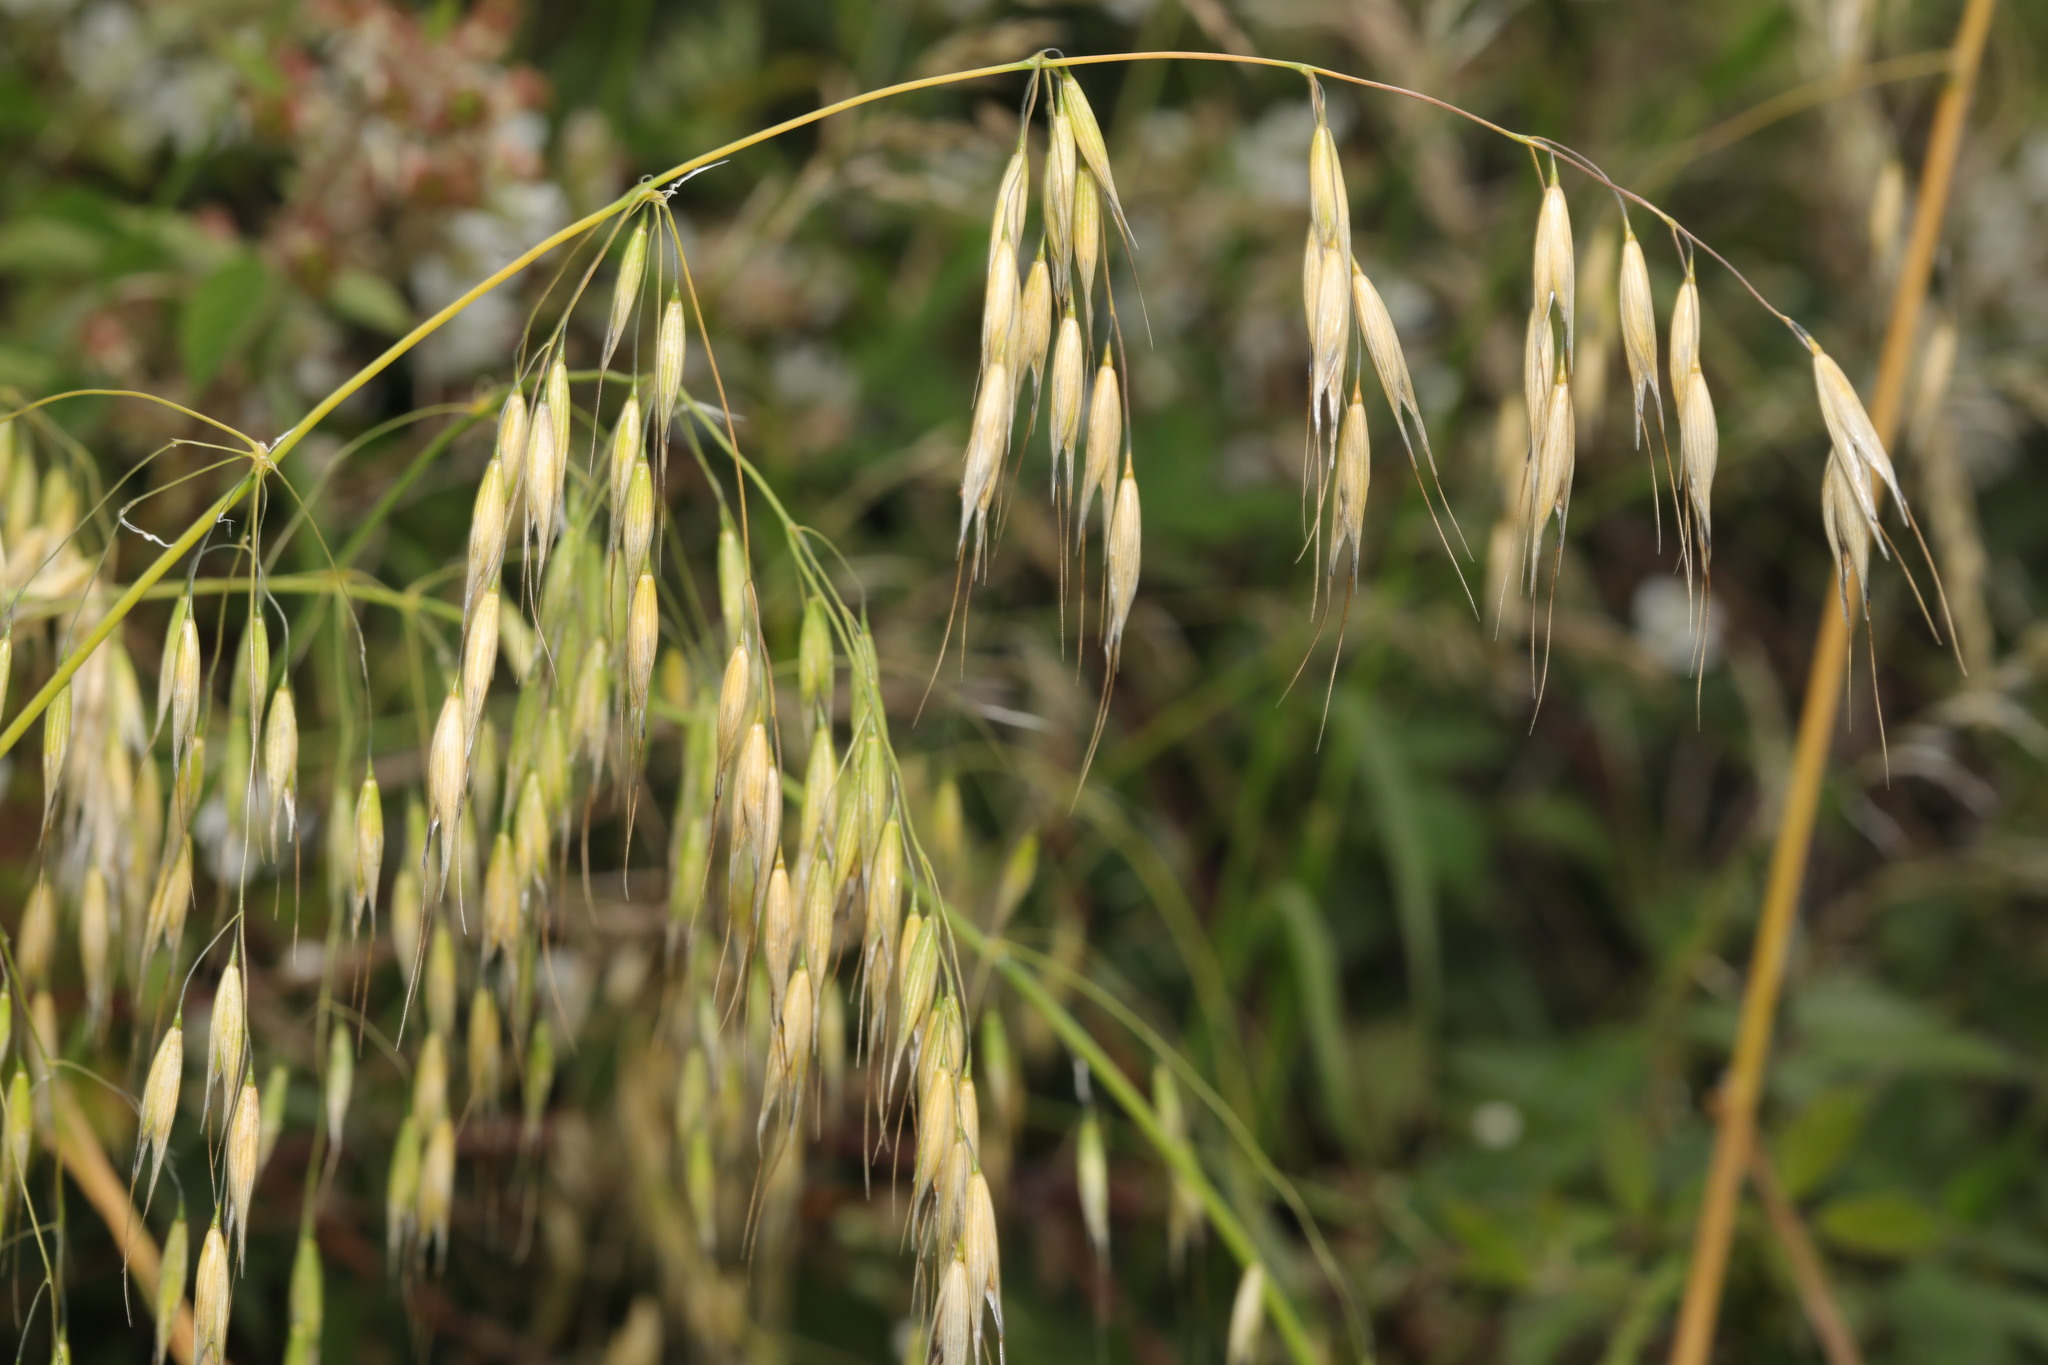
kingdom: Plantae
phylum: Tracheophyta
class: Liliopsida
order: Poales
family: Poaceae
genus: Avena
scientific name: Avena fatua
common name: Wild oat
